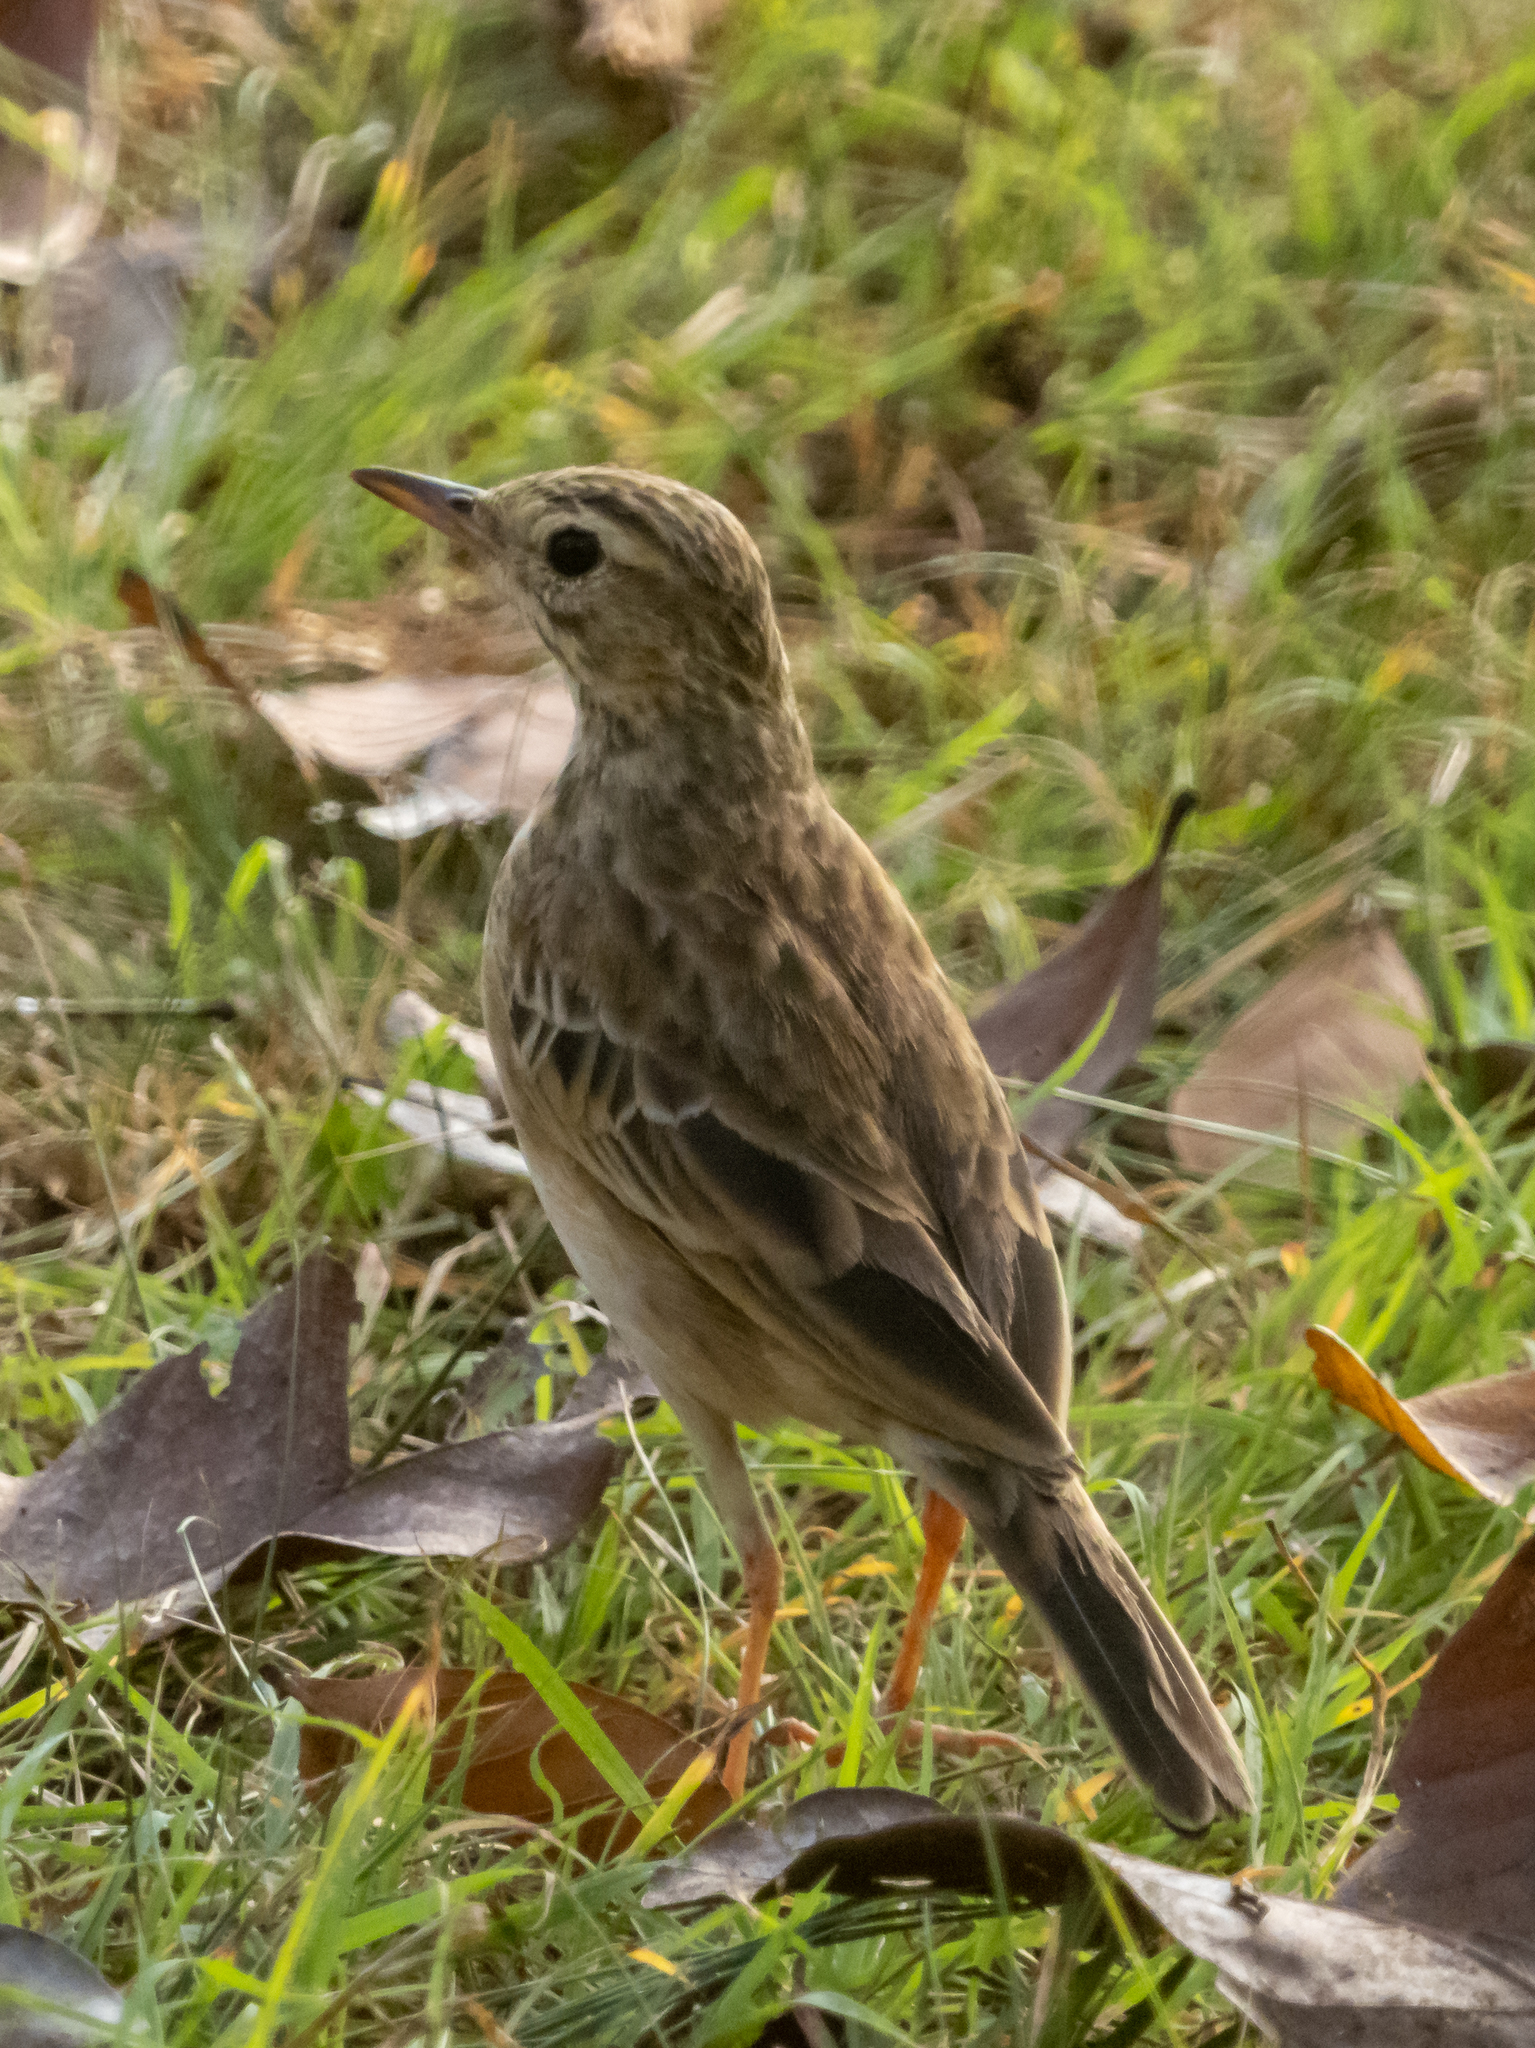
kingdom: Animalia
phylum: Chordata
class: Aves
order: Passeriformes
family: Motacillidae
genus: Anthus
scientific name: Anthus rufulus
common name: Paddyfield pipit
